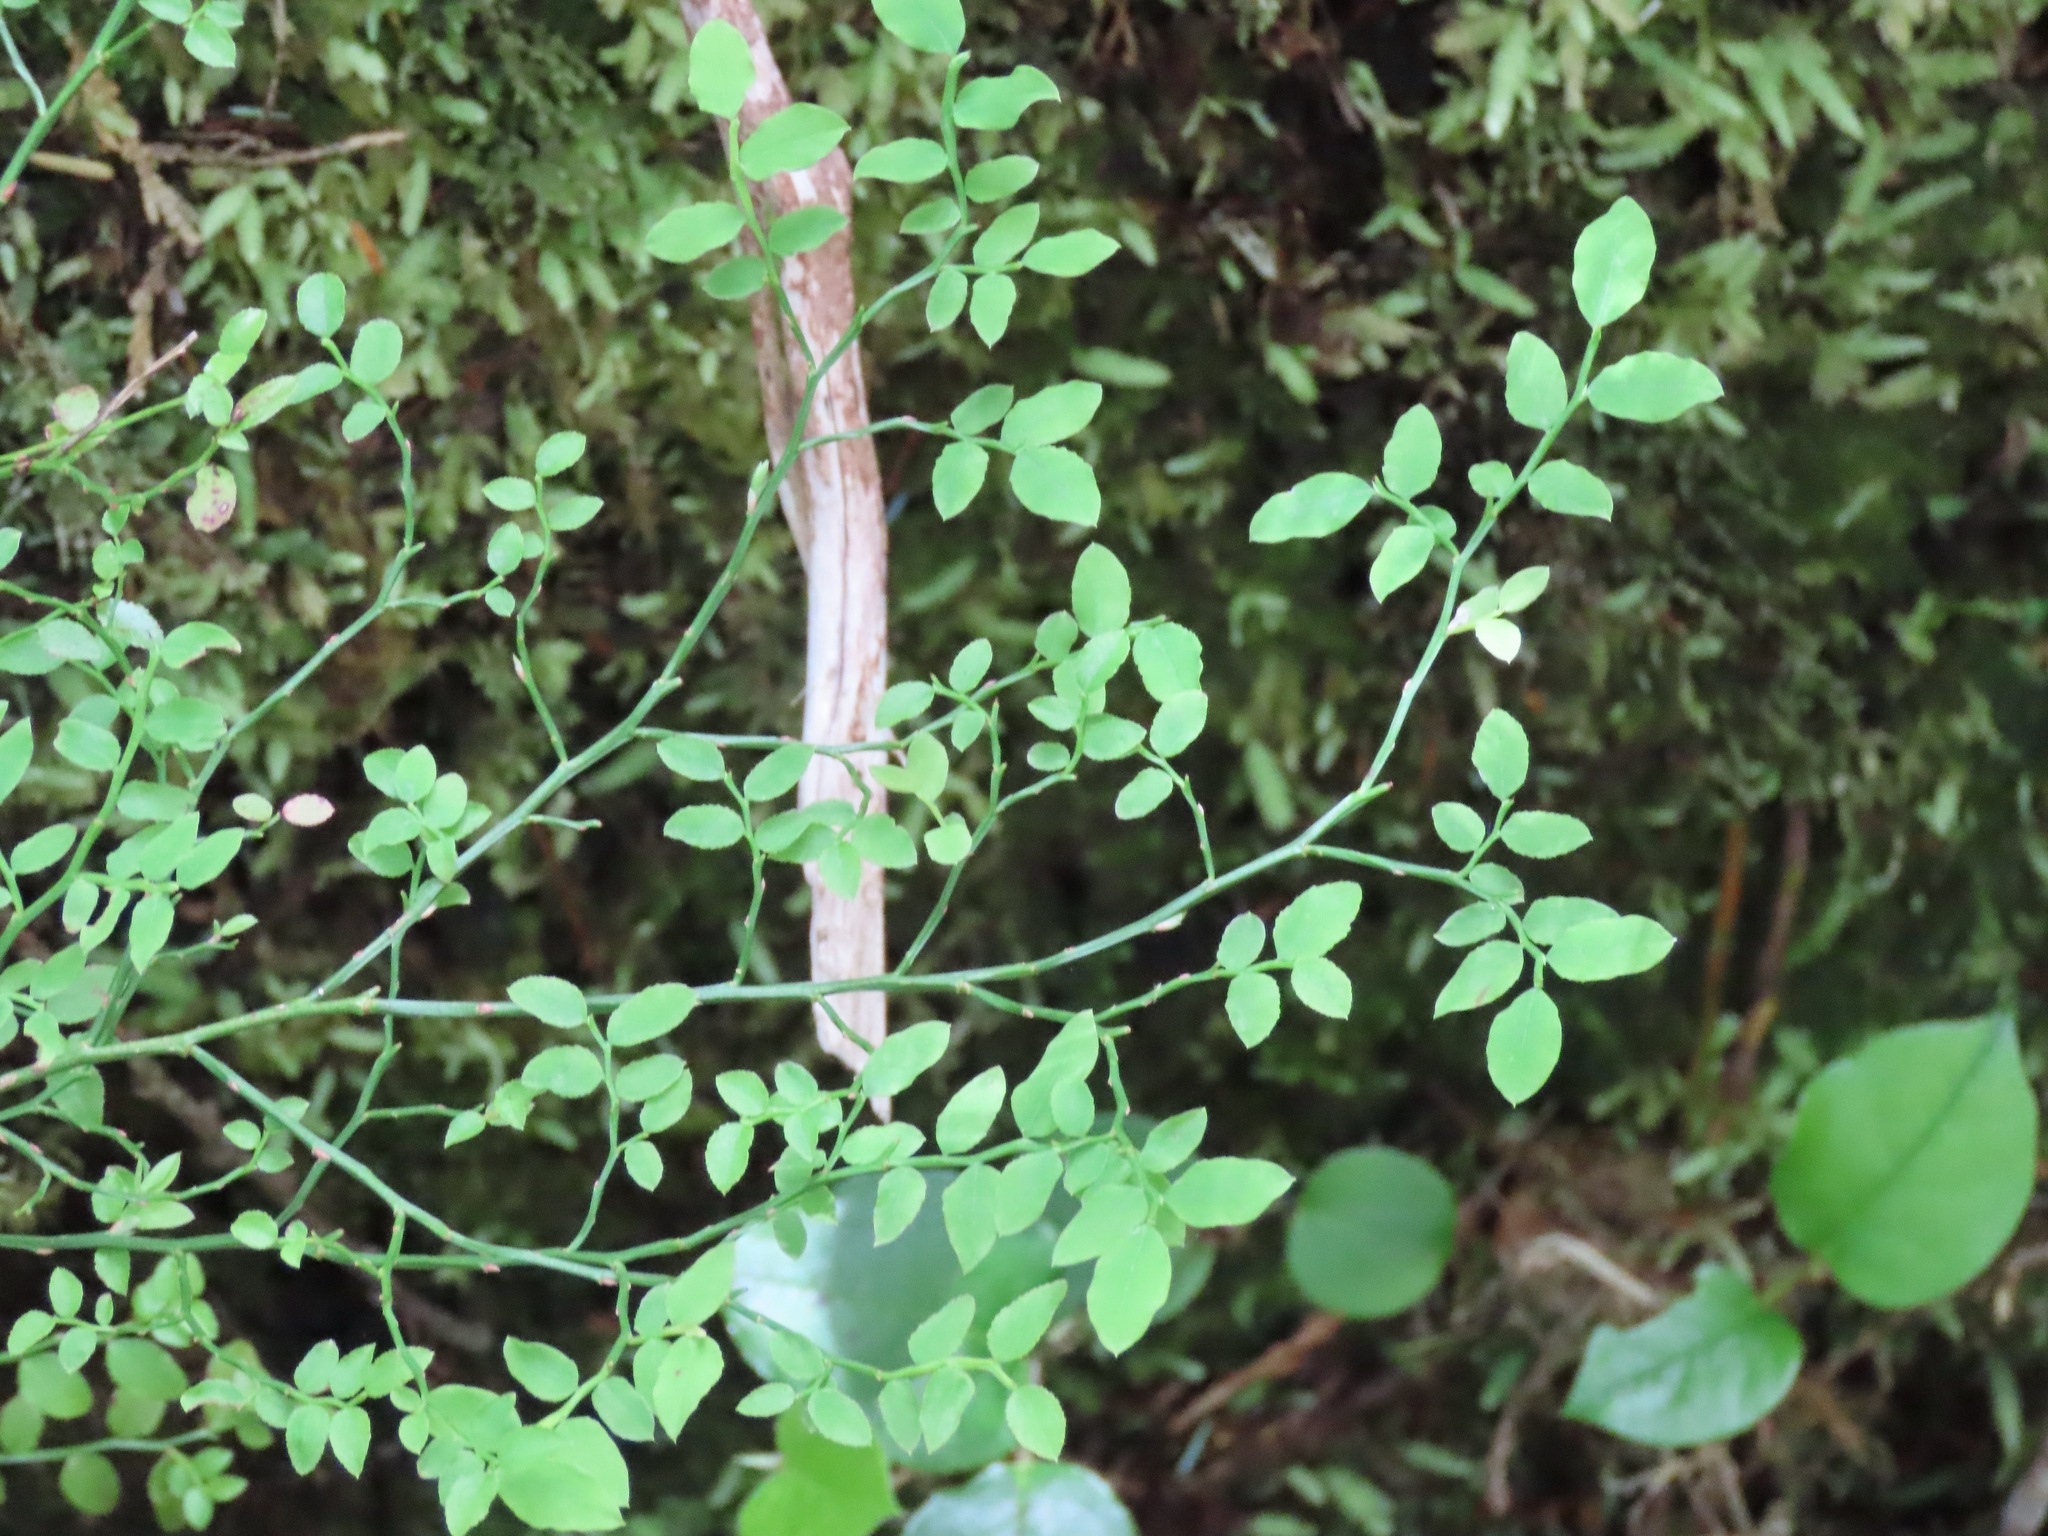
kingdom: Plantae
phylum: Tracheophyta
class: Magnoliopsida
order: Ericales
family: Ericaceae
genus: Vaccinium
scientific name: Vaccinium parvifolium
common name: Red-huckleberry
